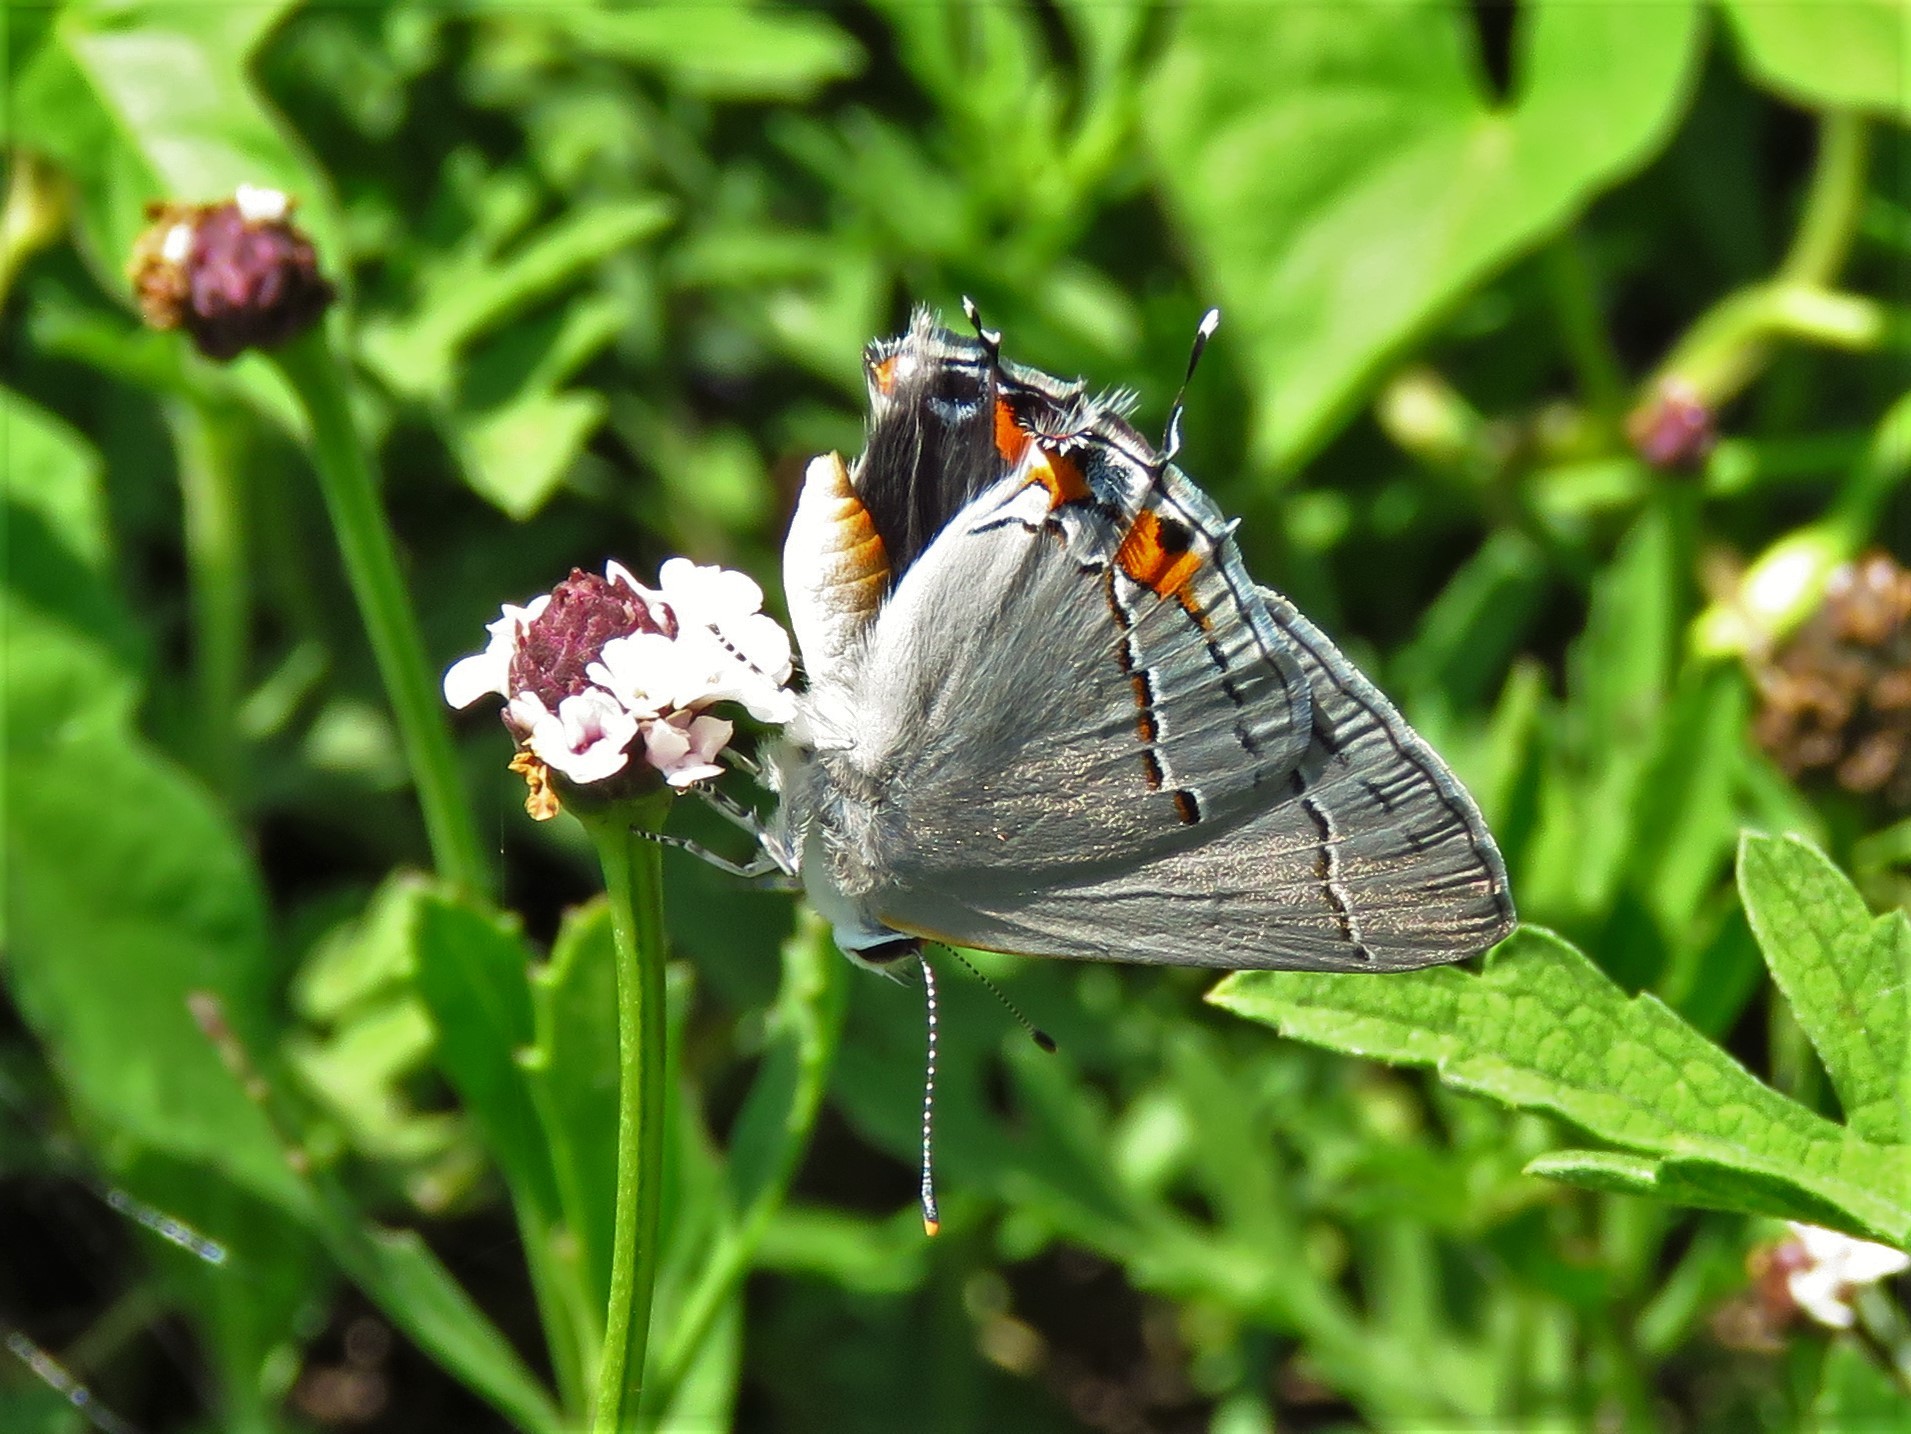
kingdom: Animalia
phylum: Arthropoda
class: Insecta
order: Lepidoptera
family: Lycaenidae
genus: Strymon
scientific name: Strymon melinus
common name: Gray hairstreak
